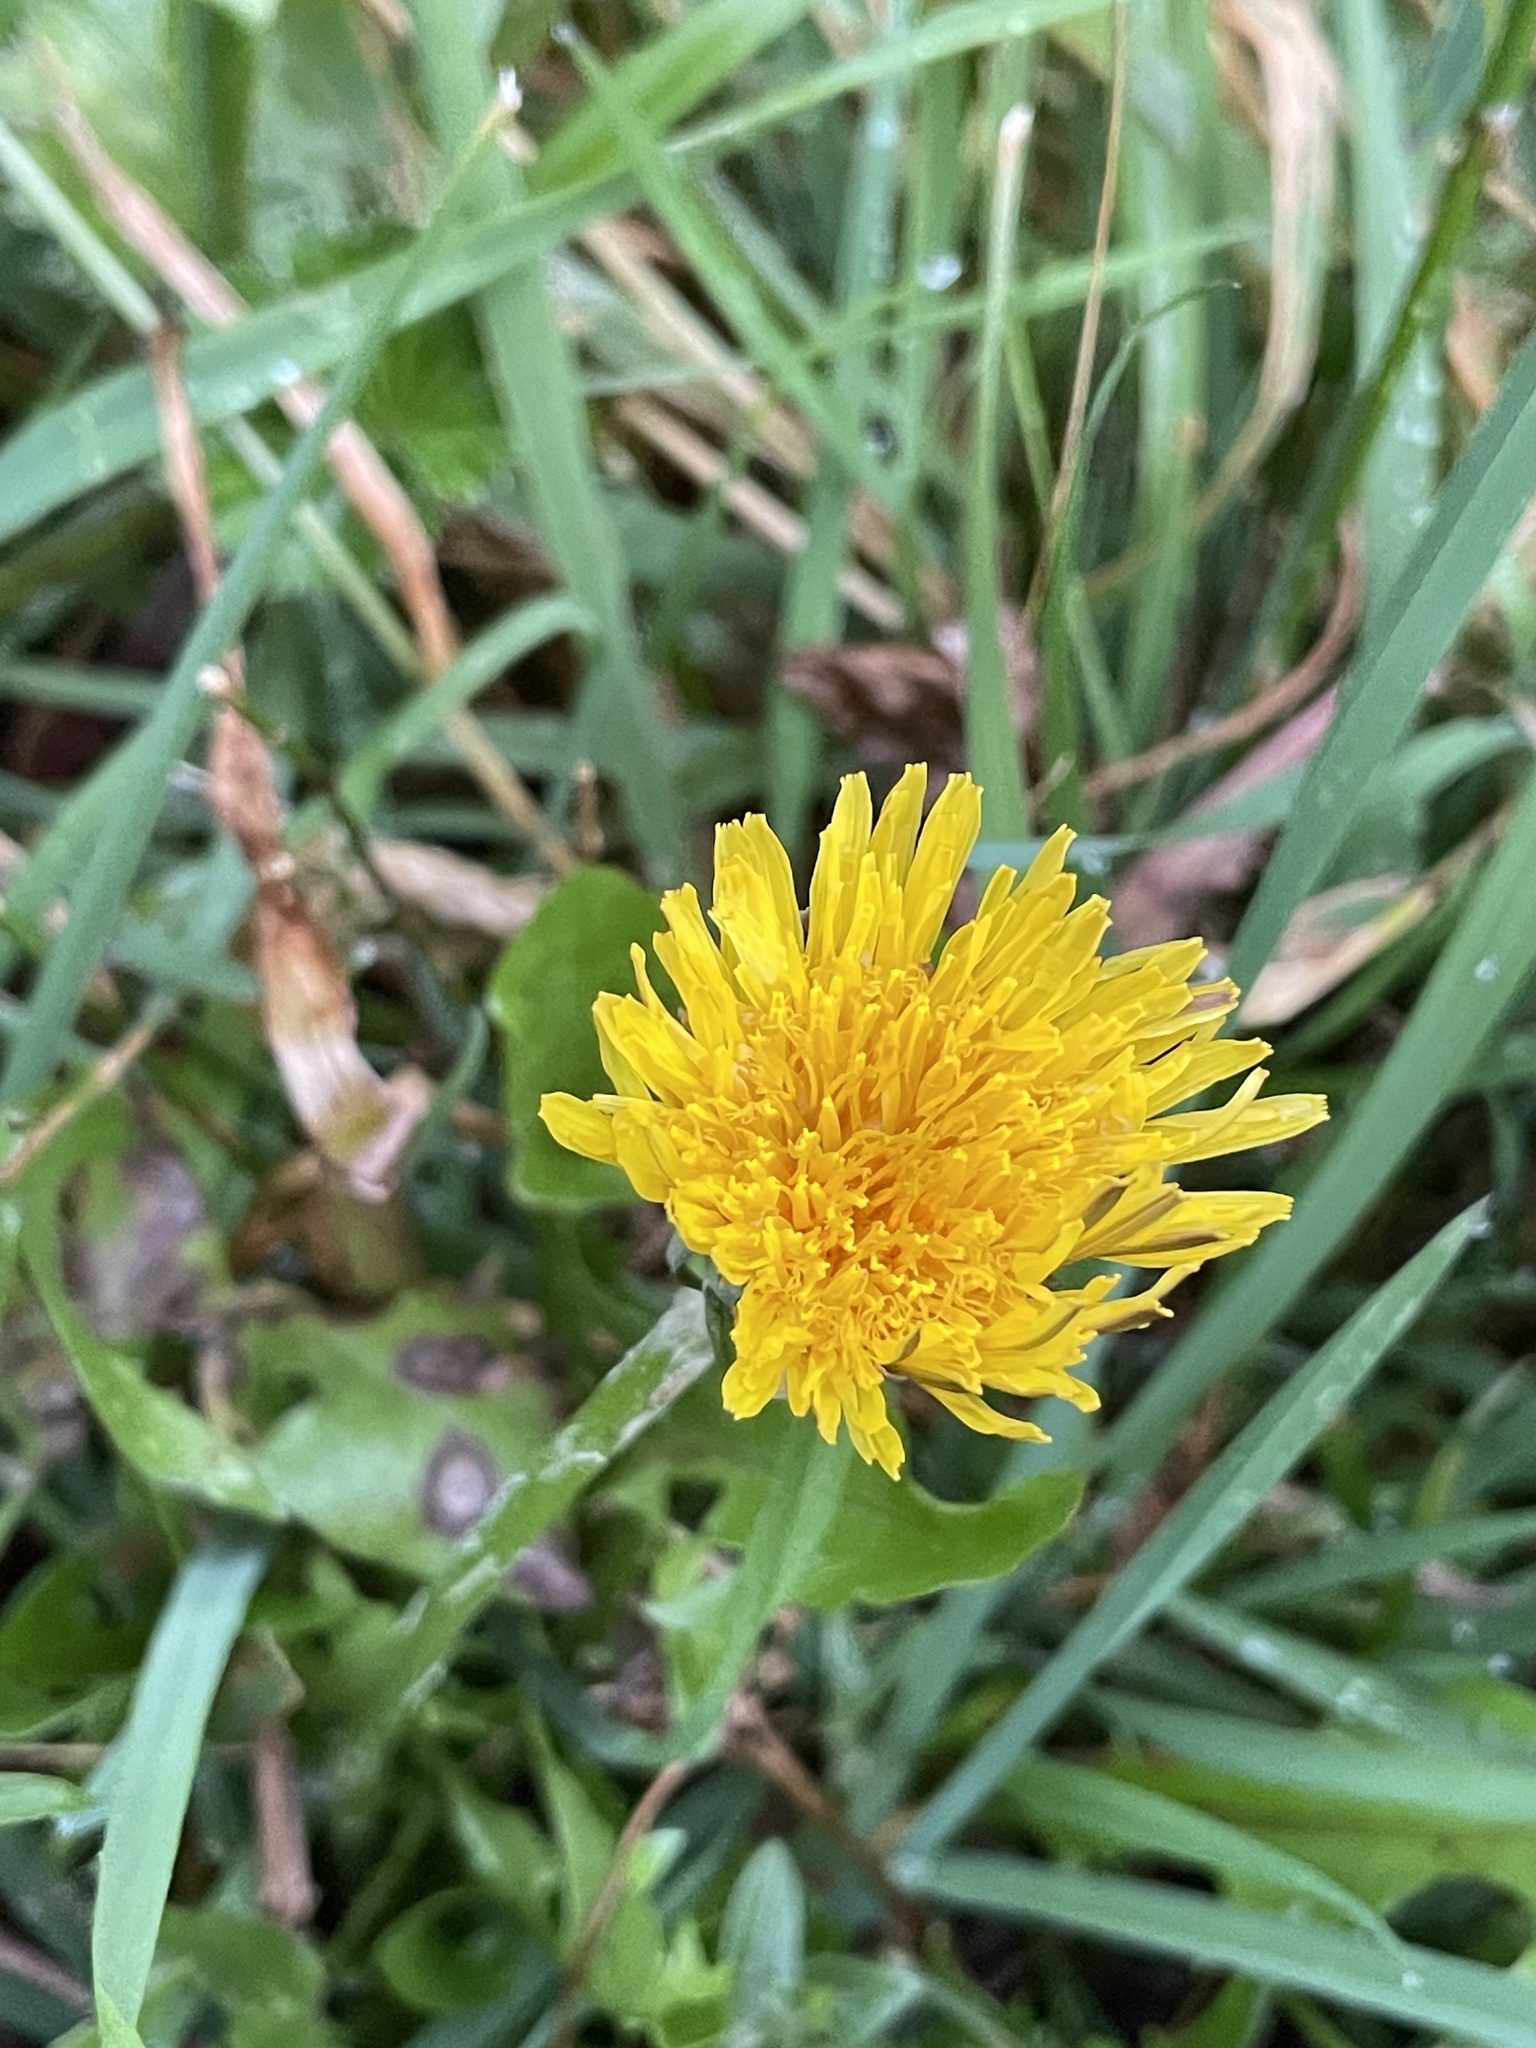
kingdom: Plantae
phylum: Tracheophyta
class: Magnoliopsida
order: Asterales
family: Asteraceae
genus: Taraxacum
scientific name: Taraxacum officinale
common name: Common dandelion
